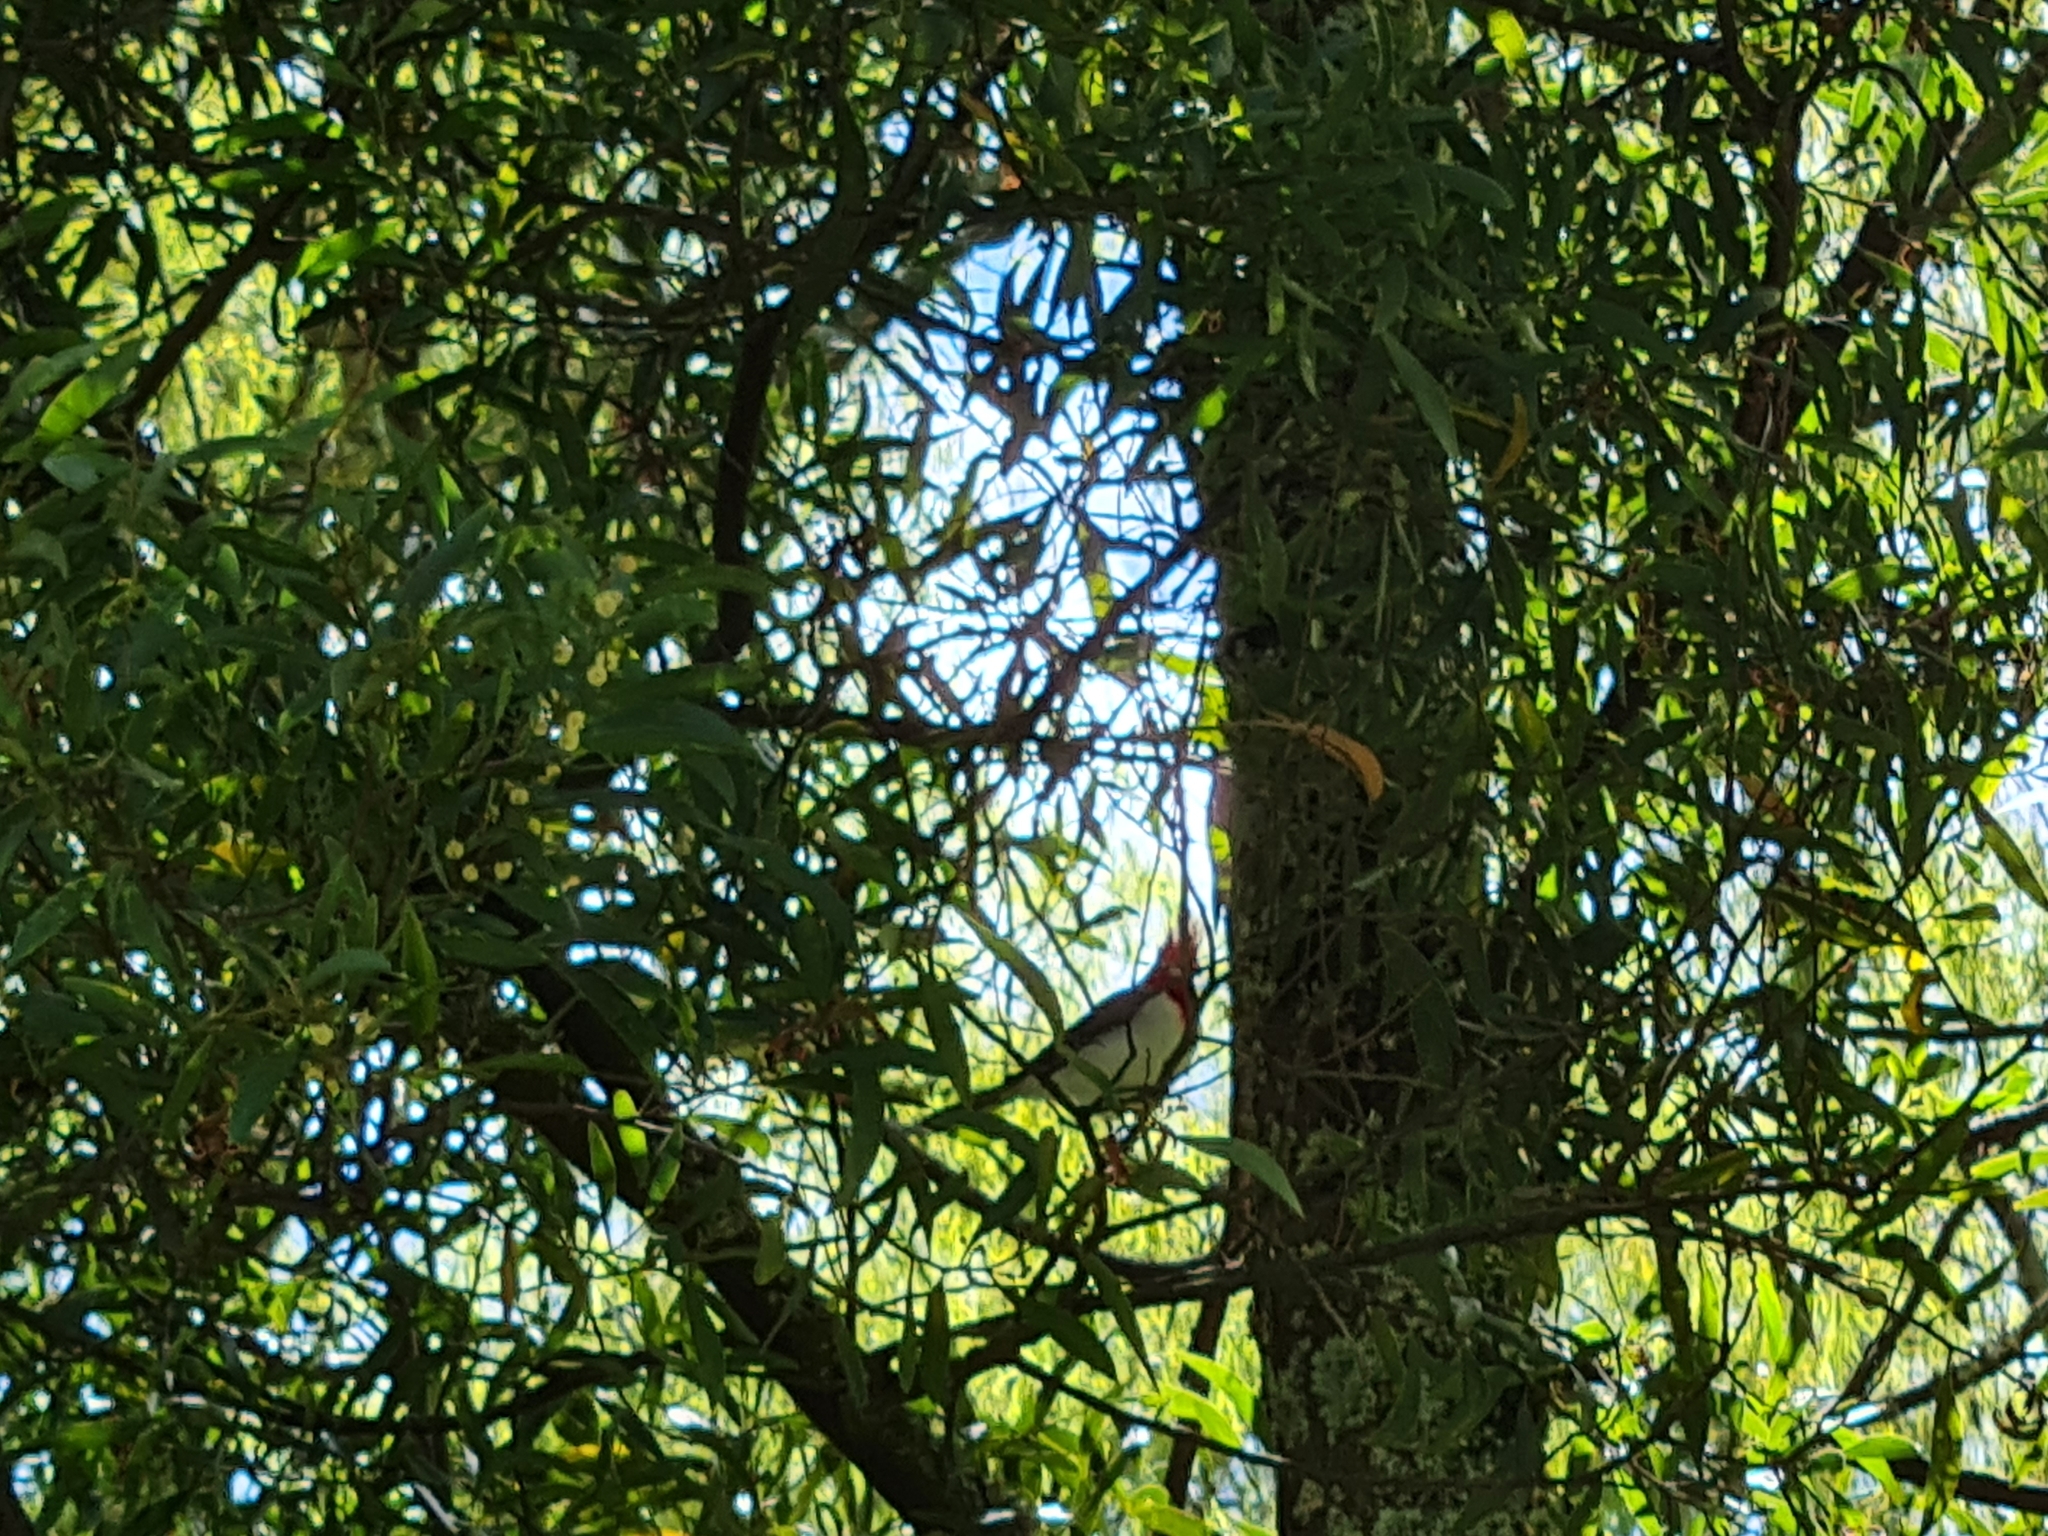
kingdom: Animalia
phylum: Chordata
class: Aves
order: Passeriformes
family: Thraupidae
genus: Paroaria
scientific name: Paroaria coronata
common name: Red-crested cardinal
